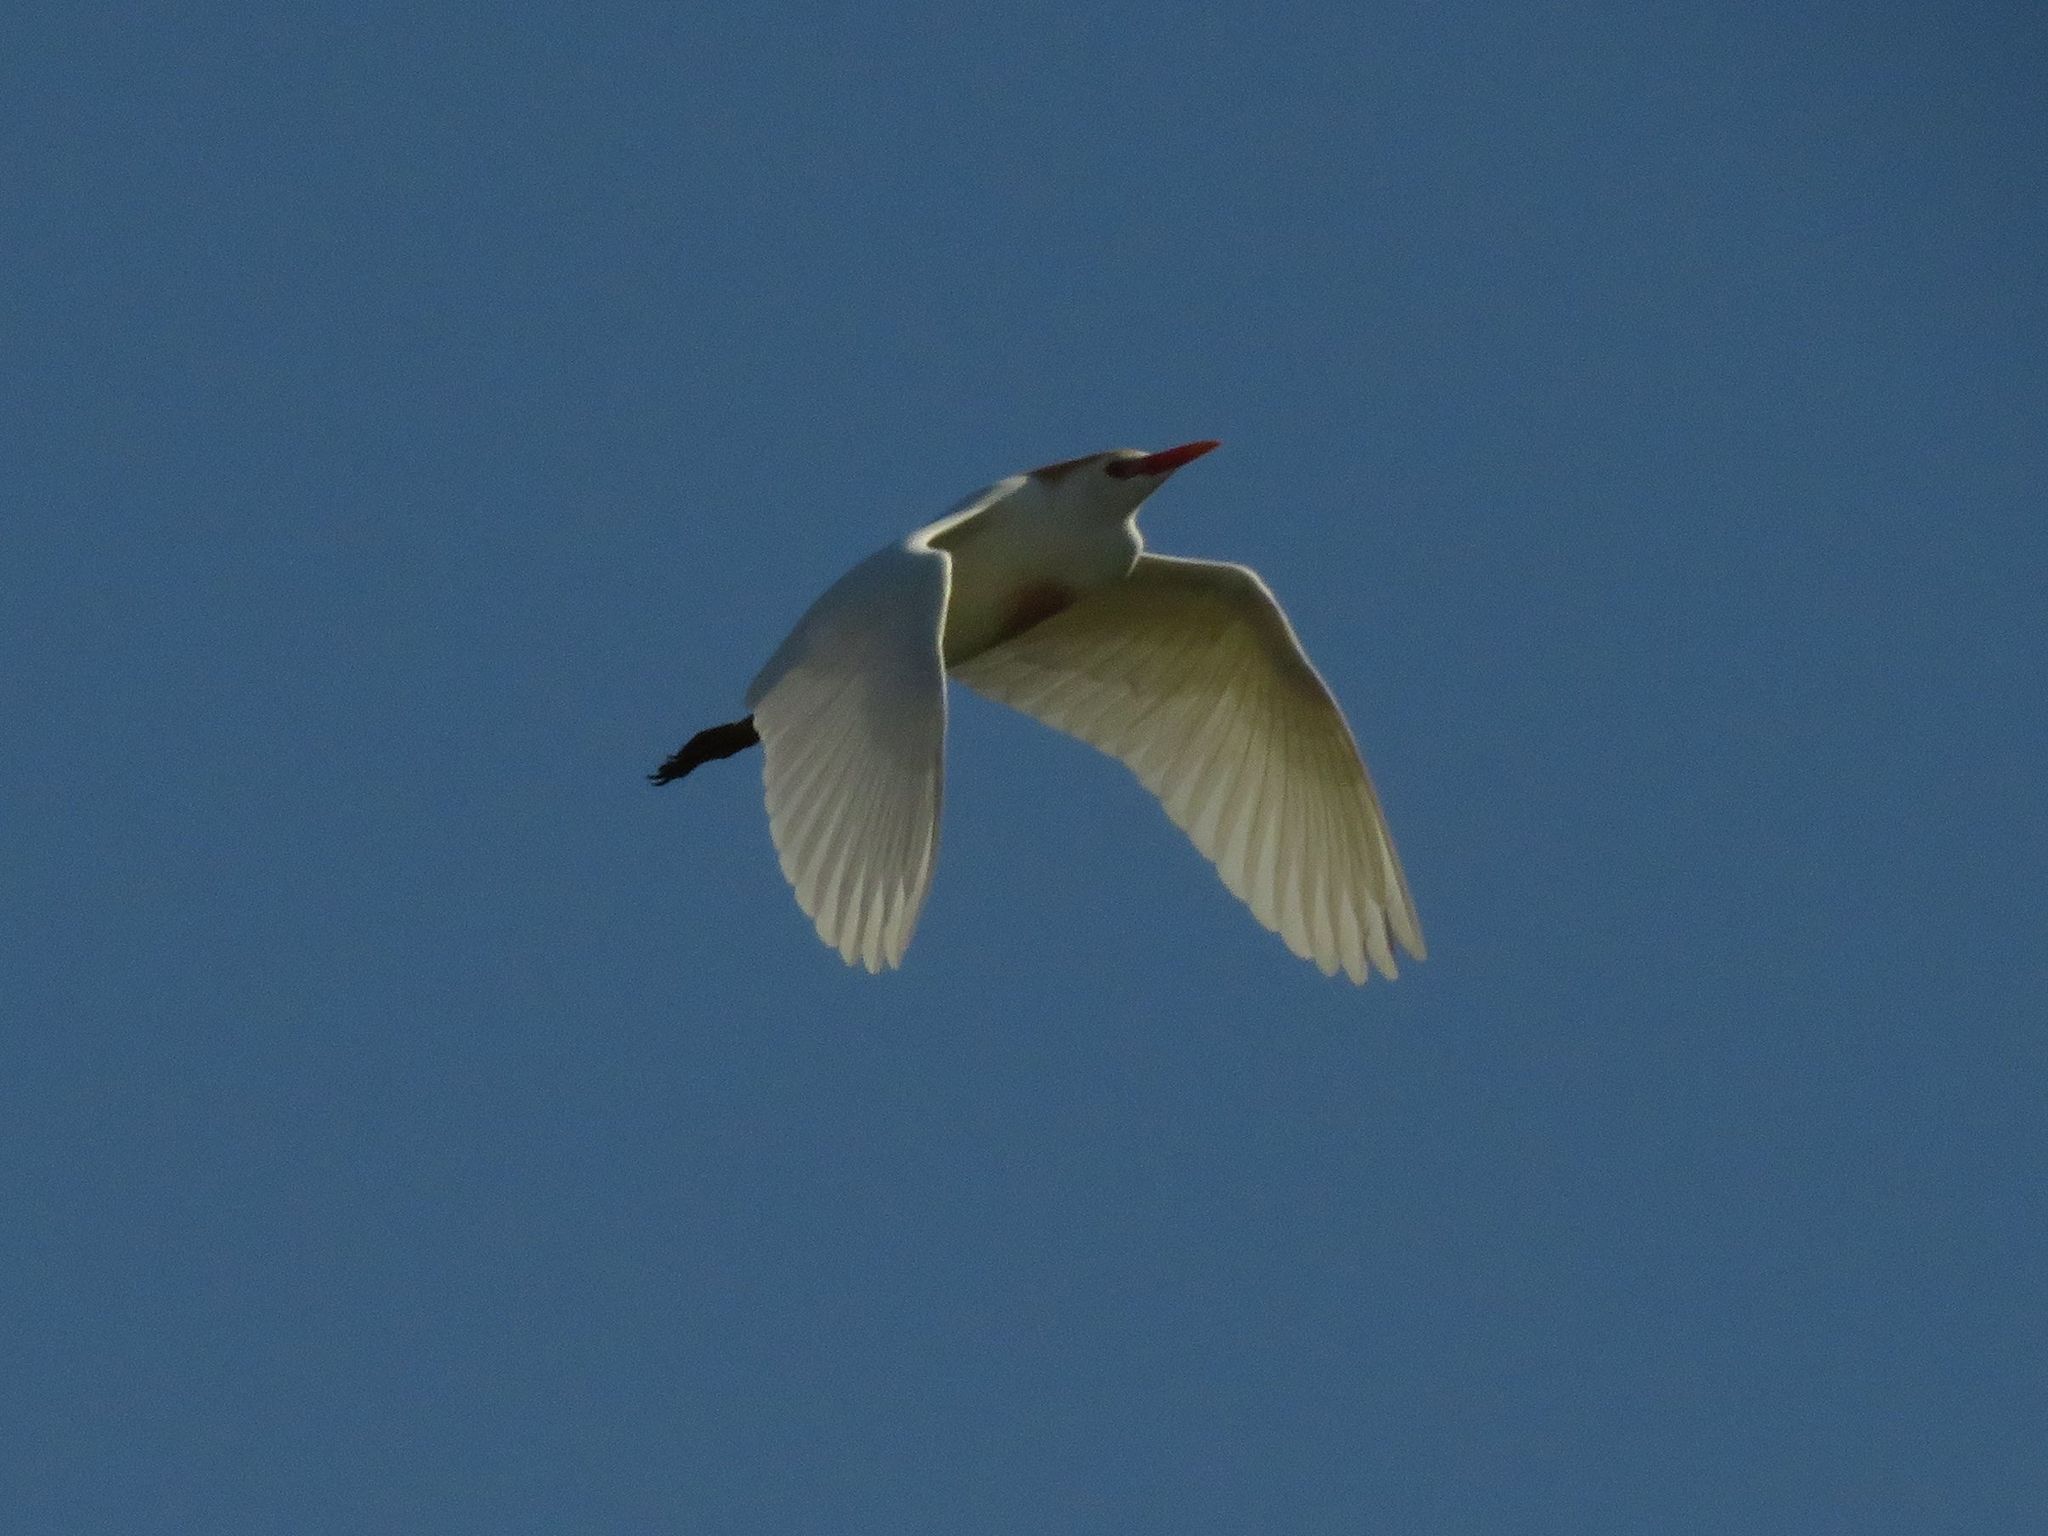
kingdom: Animalia
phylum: Chordata
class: Aves
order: Pelecaniformes
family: Ardeidae
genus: Bubulcus
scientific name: Bubulcus ibis
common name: Cattle egret
